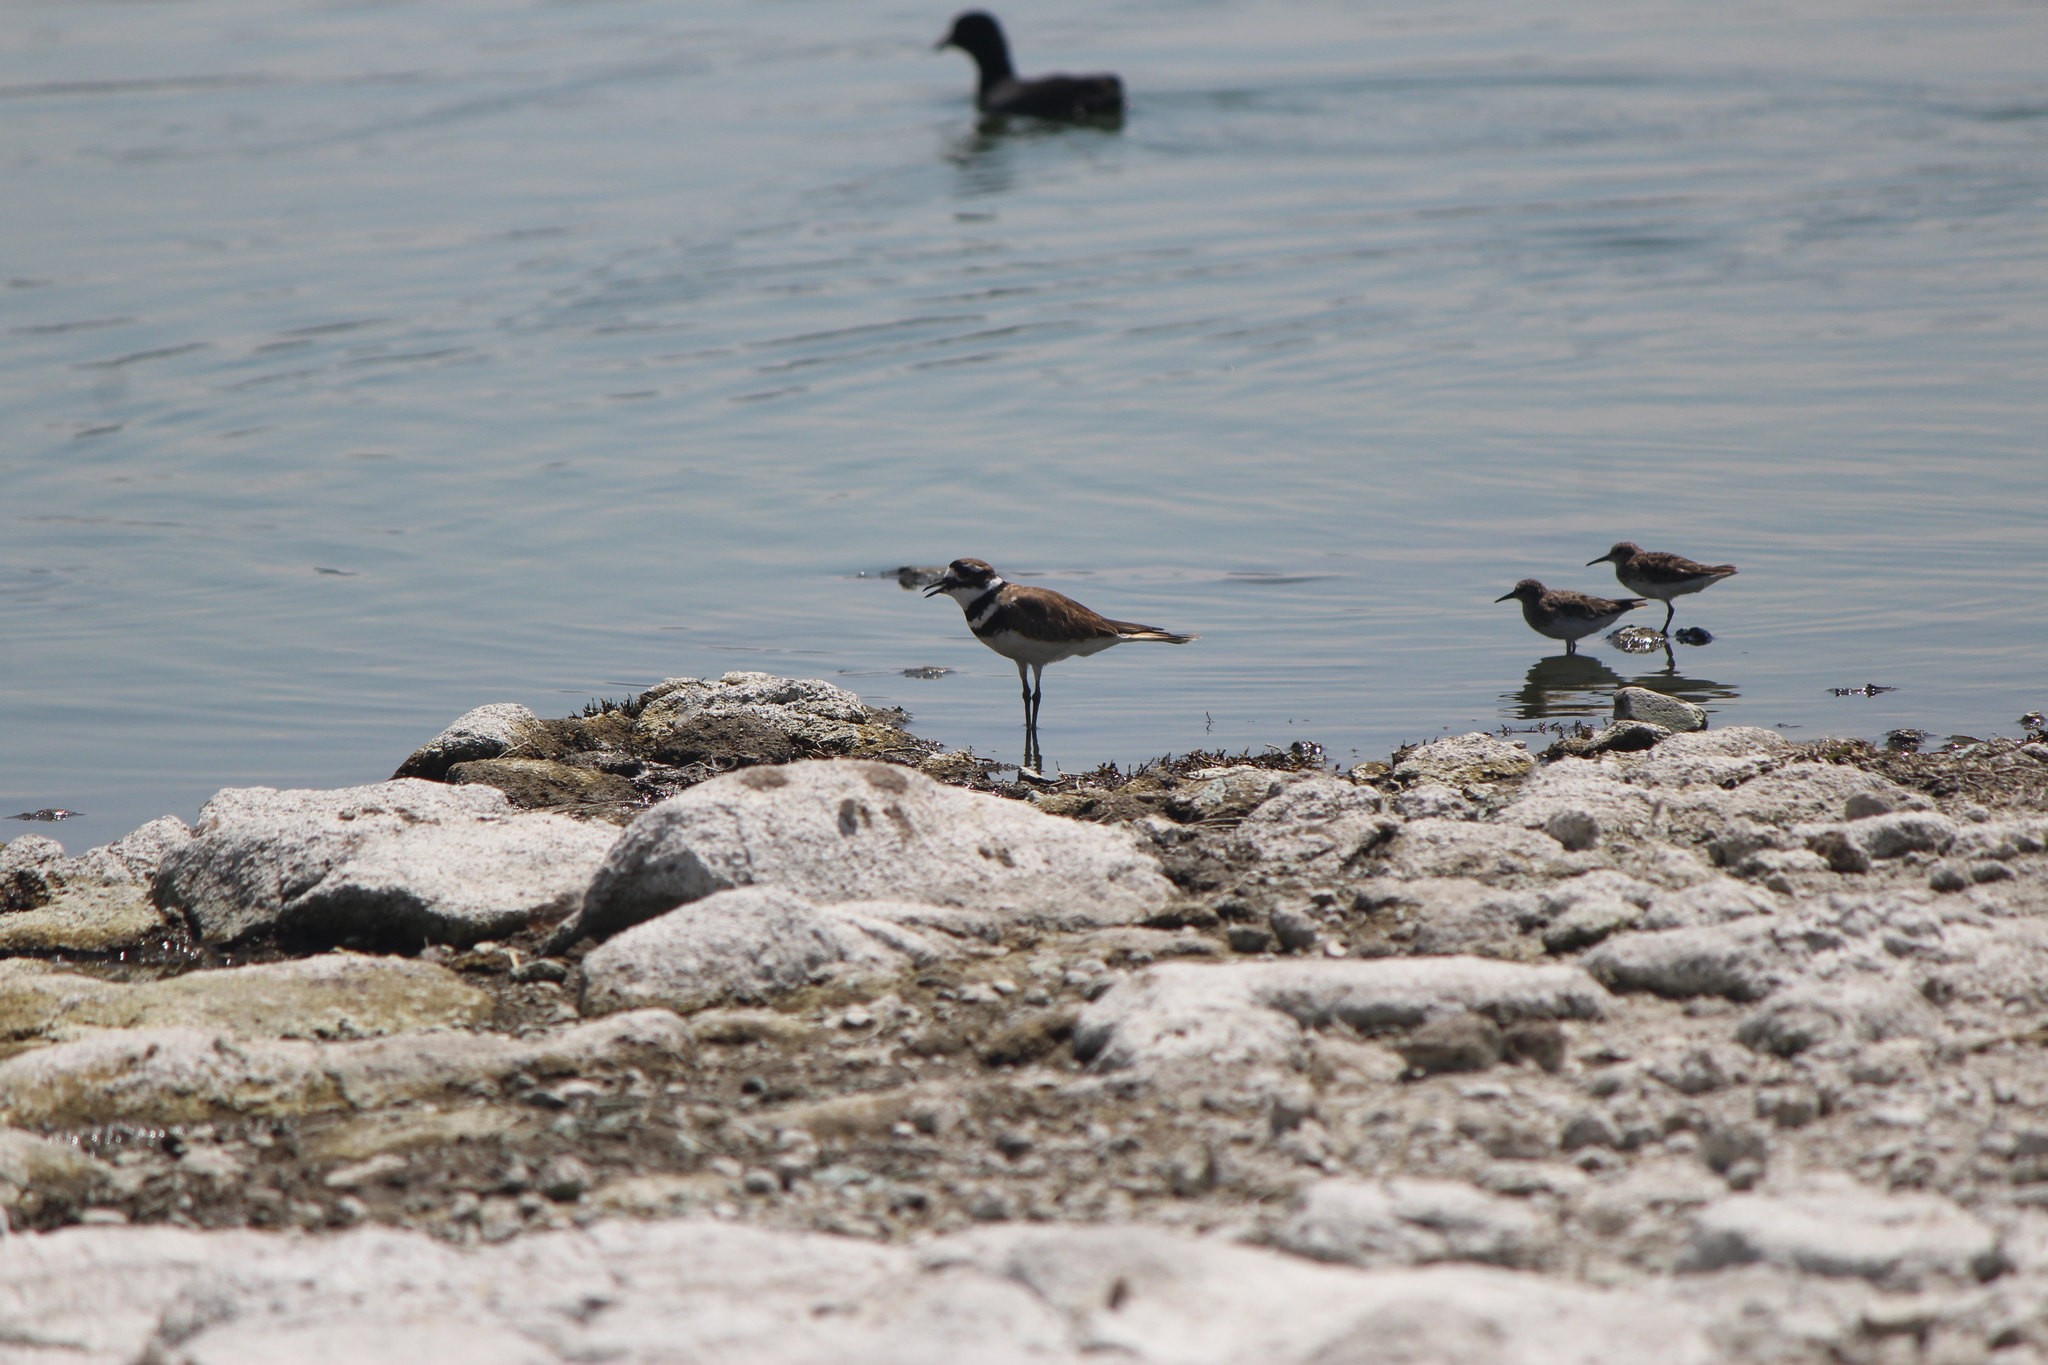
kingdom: Animalia
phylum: Chordata
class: Aves
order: Charadriiformes
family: Charadriidae
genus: Charadrius
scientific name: Charadrius vociferus
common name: Killdeer
